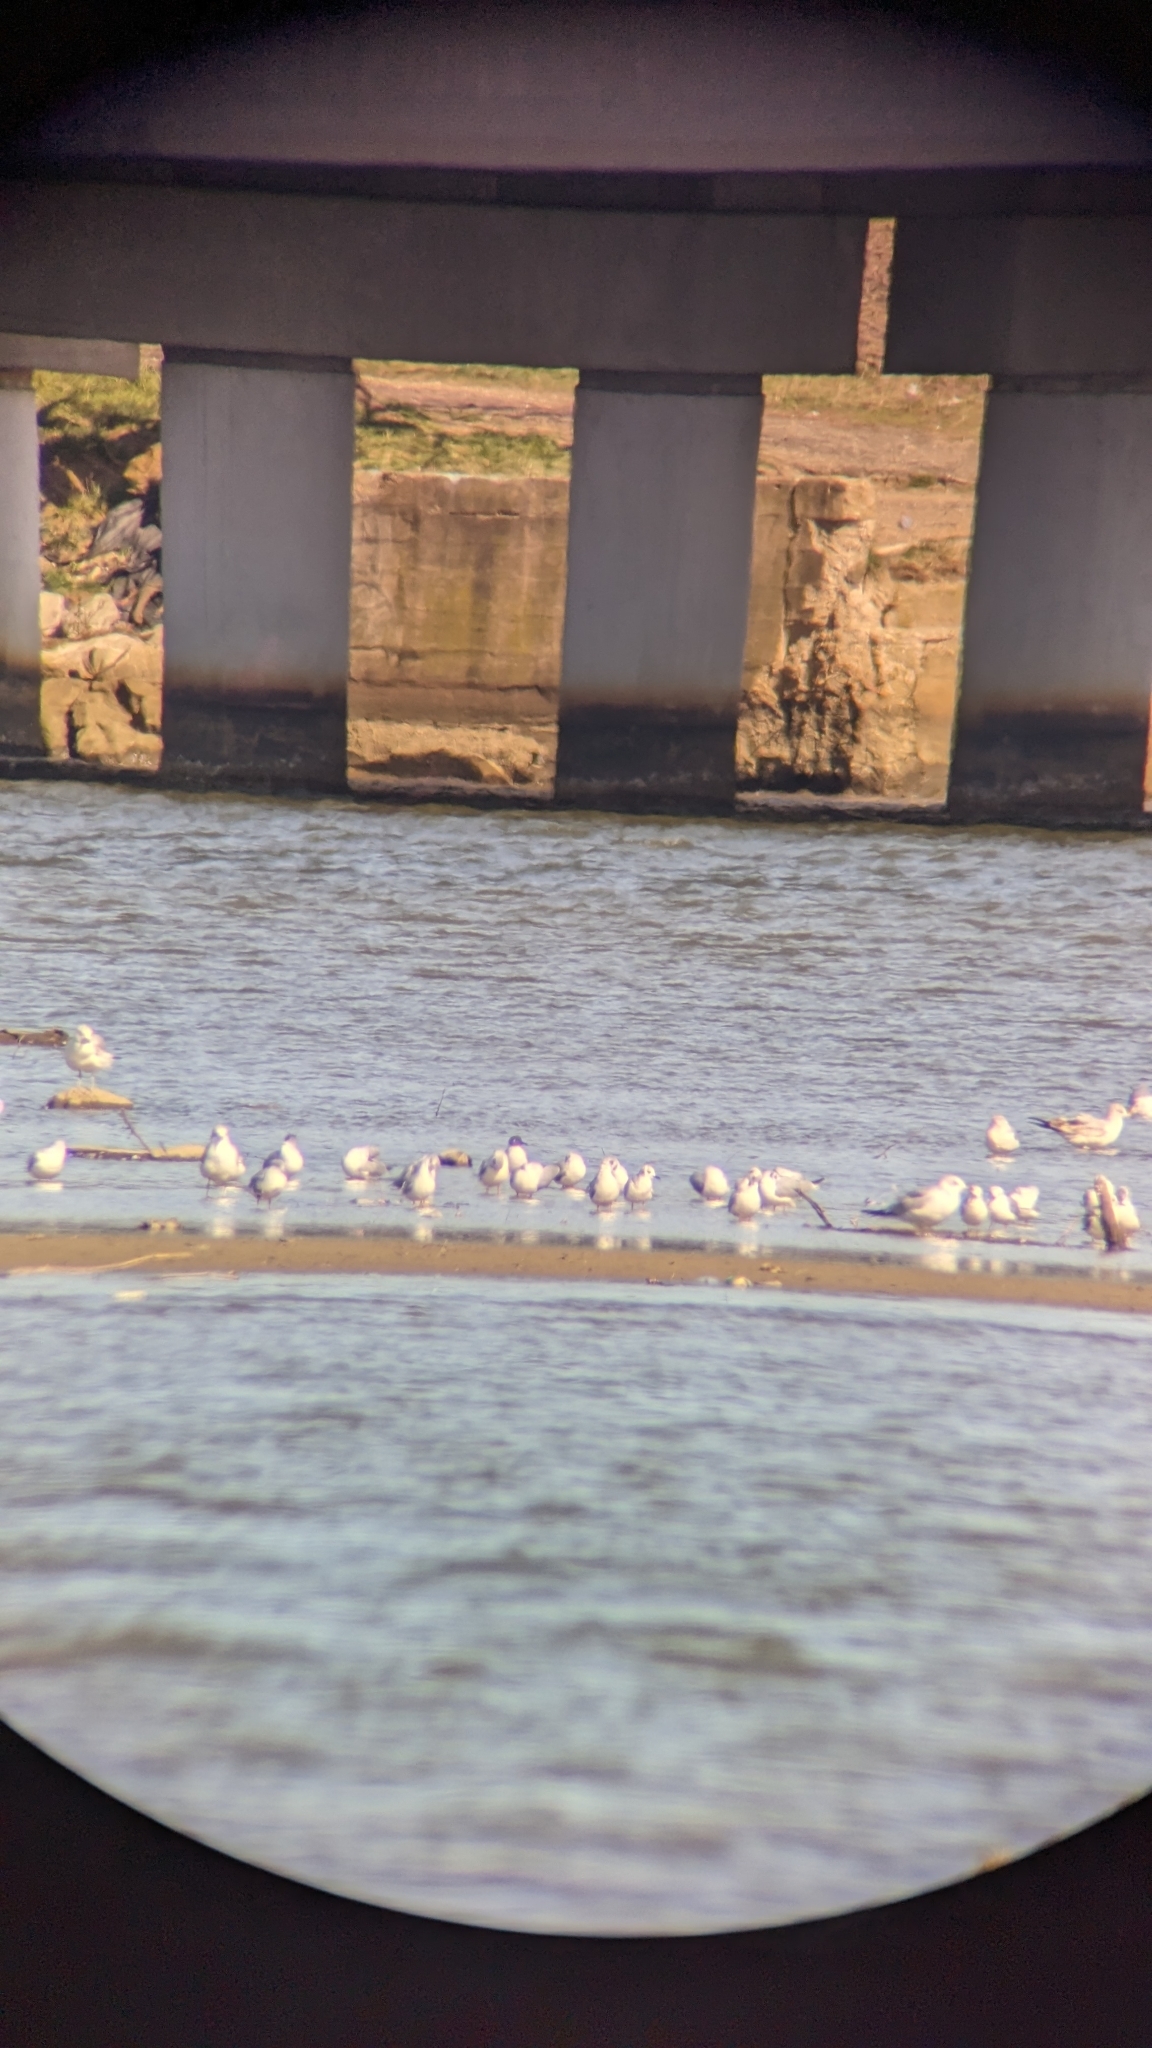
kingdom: Animalia
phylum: Chordata
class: Aves
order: Charadriiformes
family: Laridae
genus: Chroicocephalus
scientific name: Chroicocephalus philadelphia
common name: Bonaparte's gull
